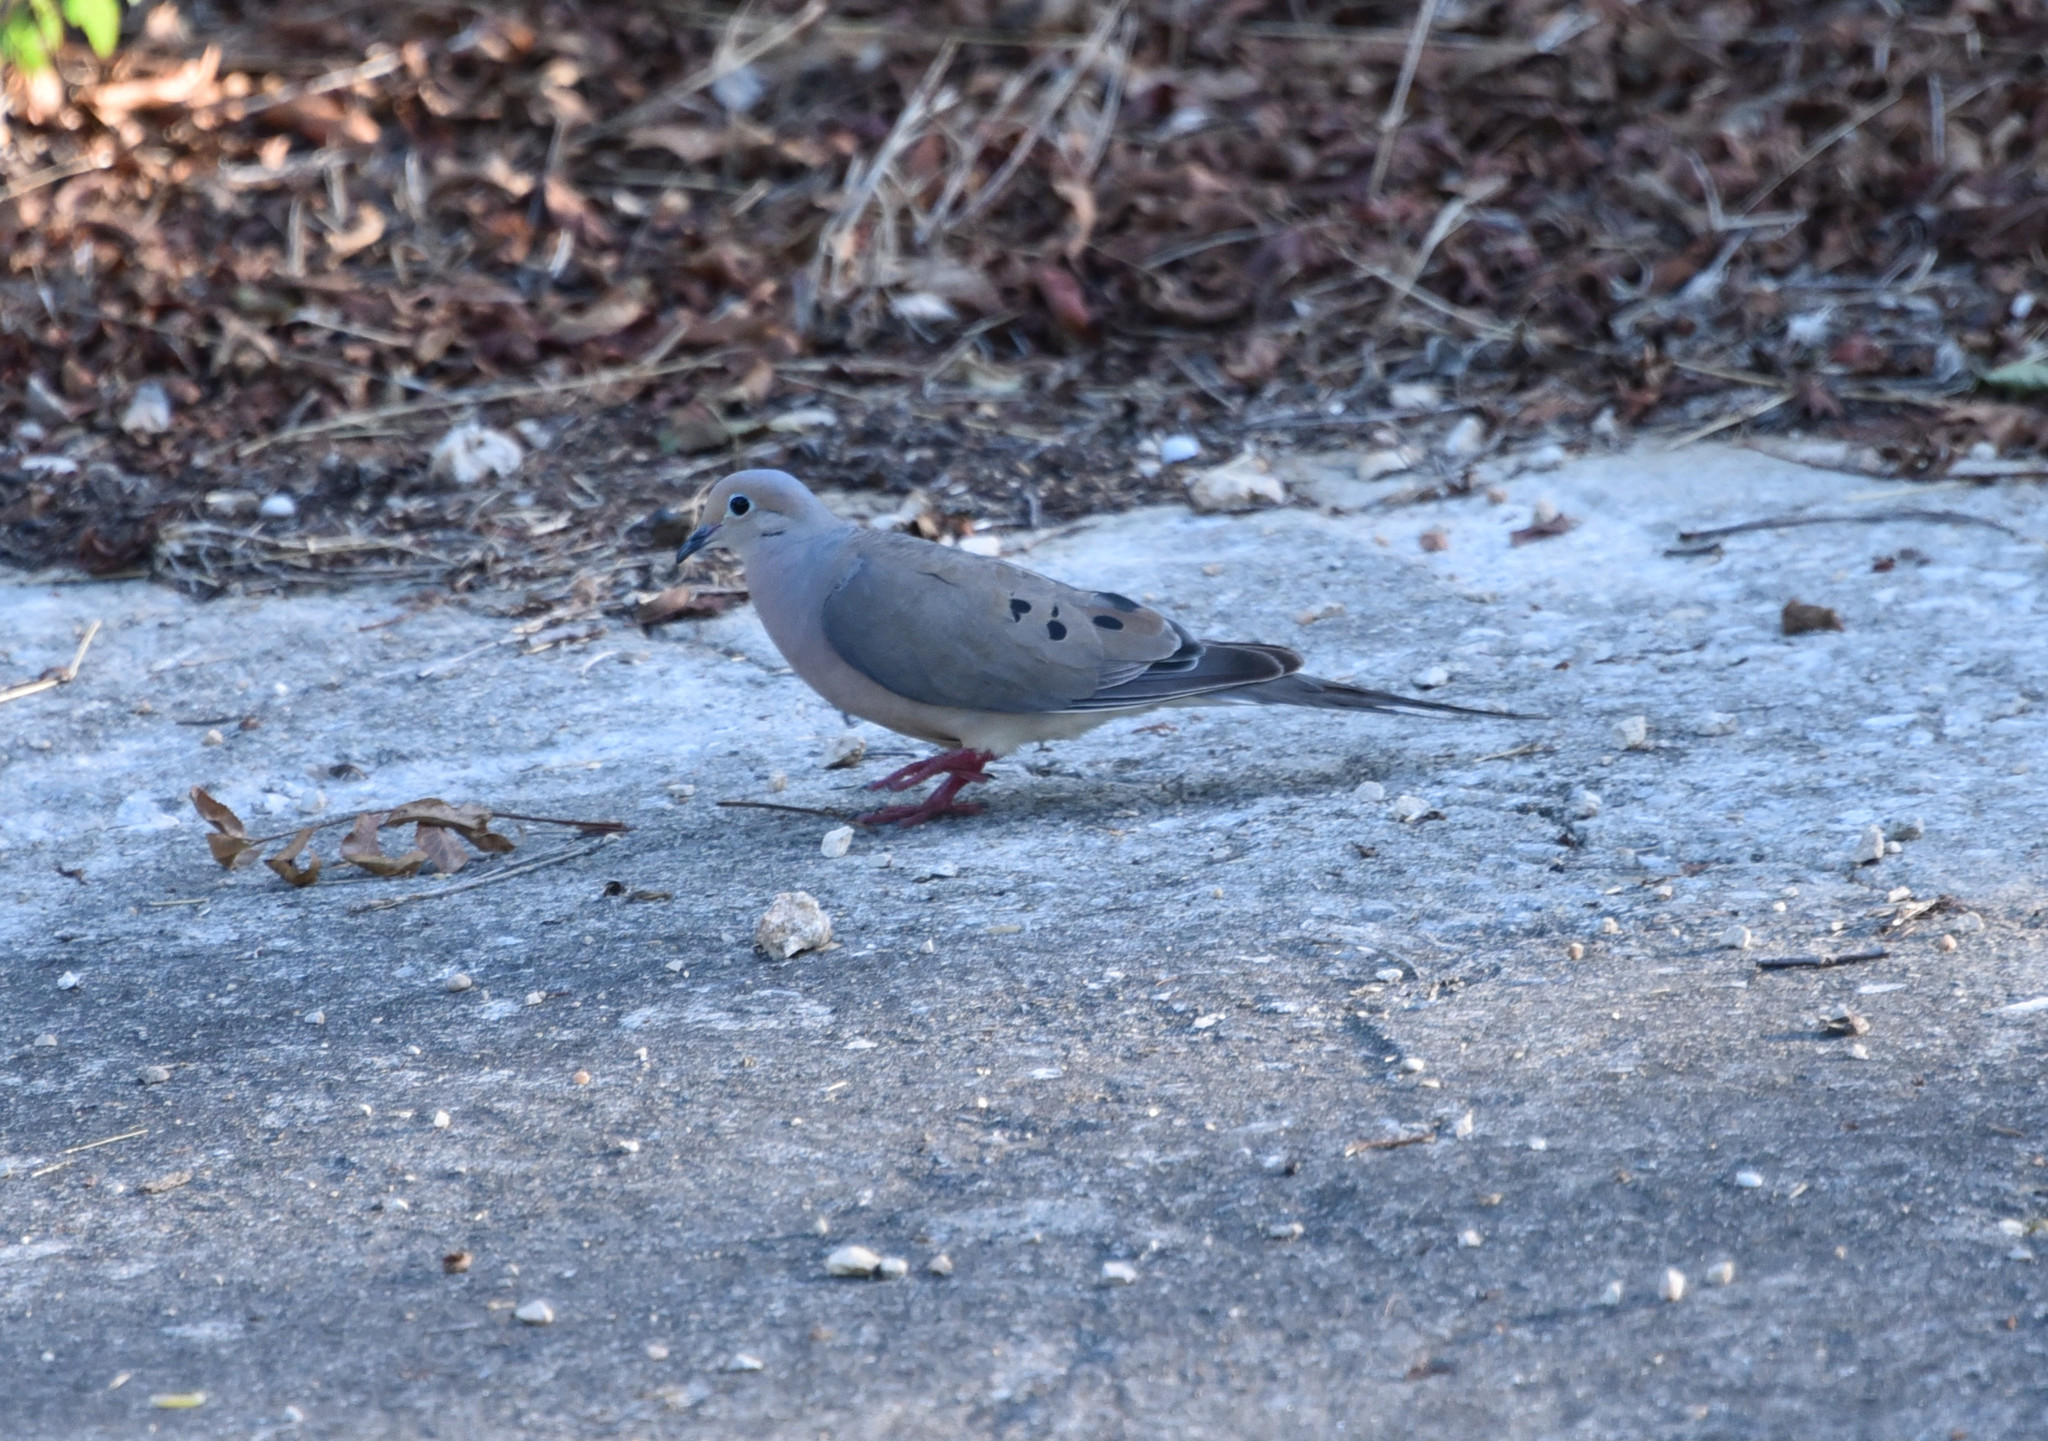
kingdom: Animalia
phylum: Chordata
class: Aves
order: Columbiformes
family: Columbidae
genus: Zenaida
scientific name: Zenaida macroura
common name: Mourning dove
